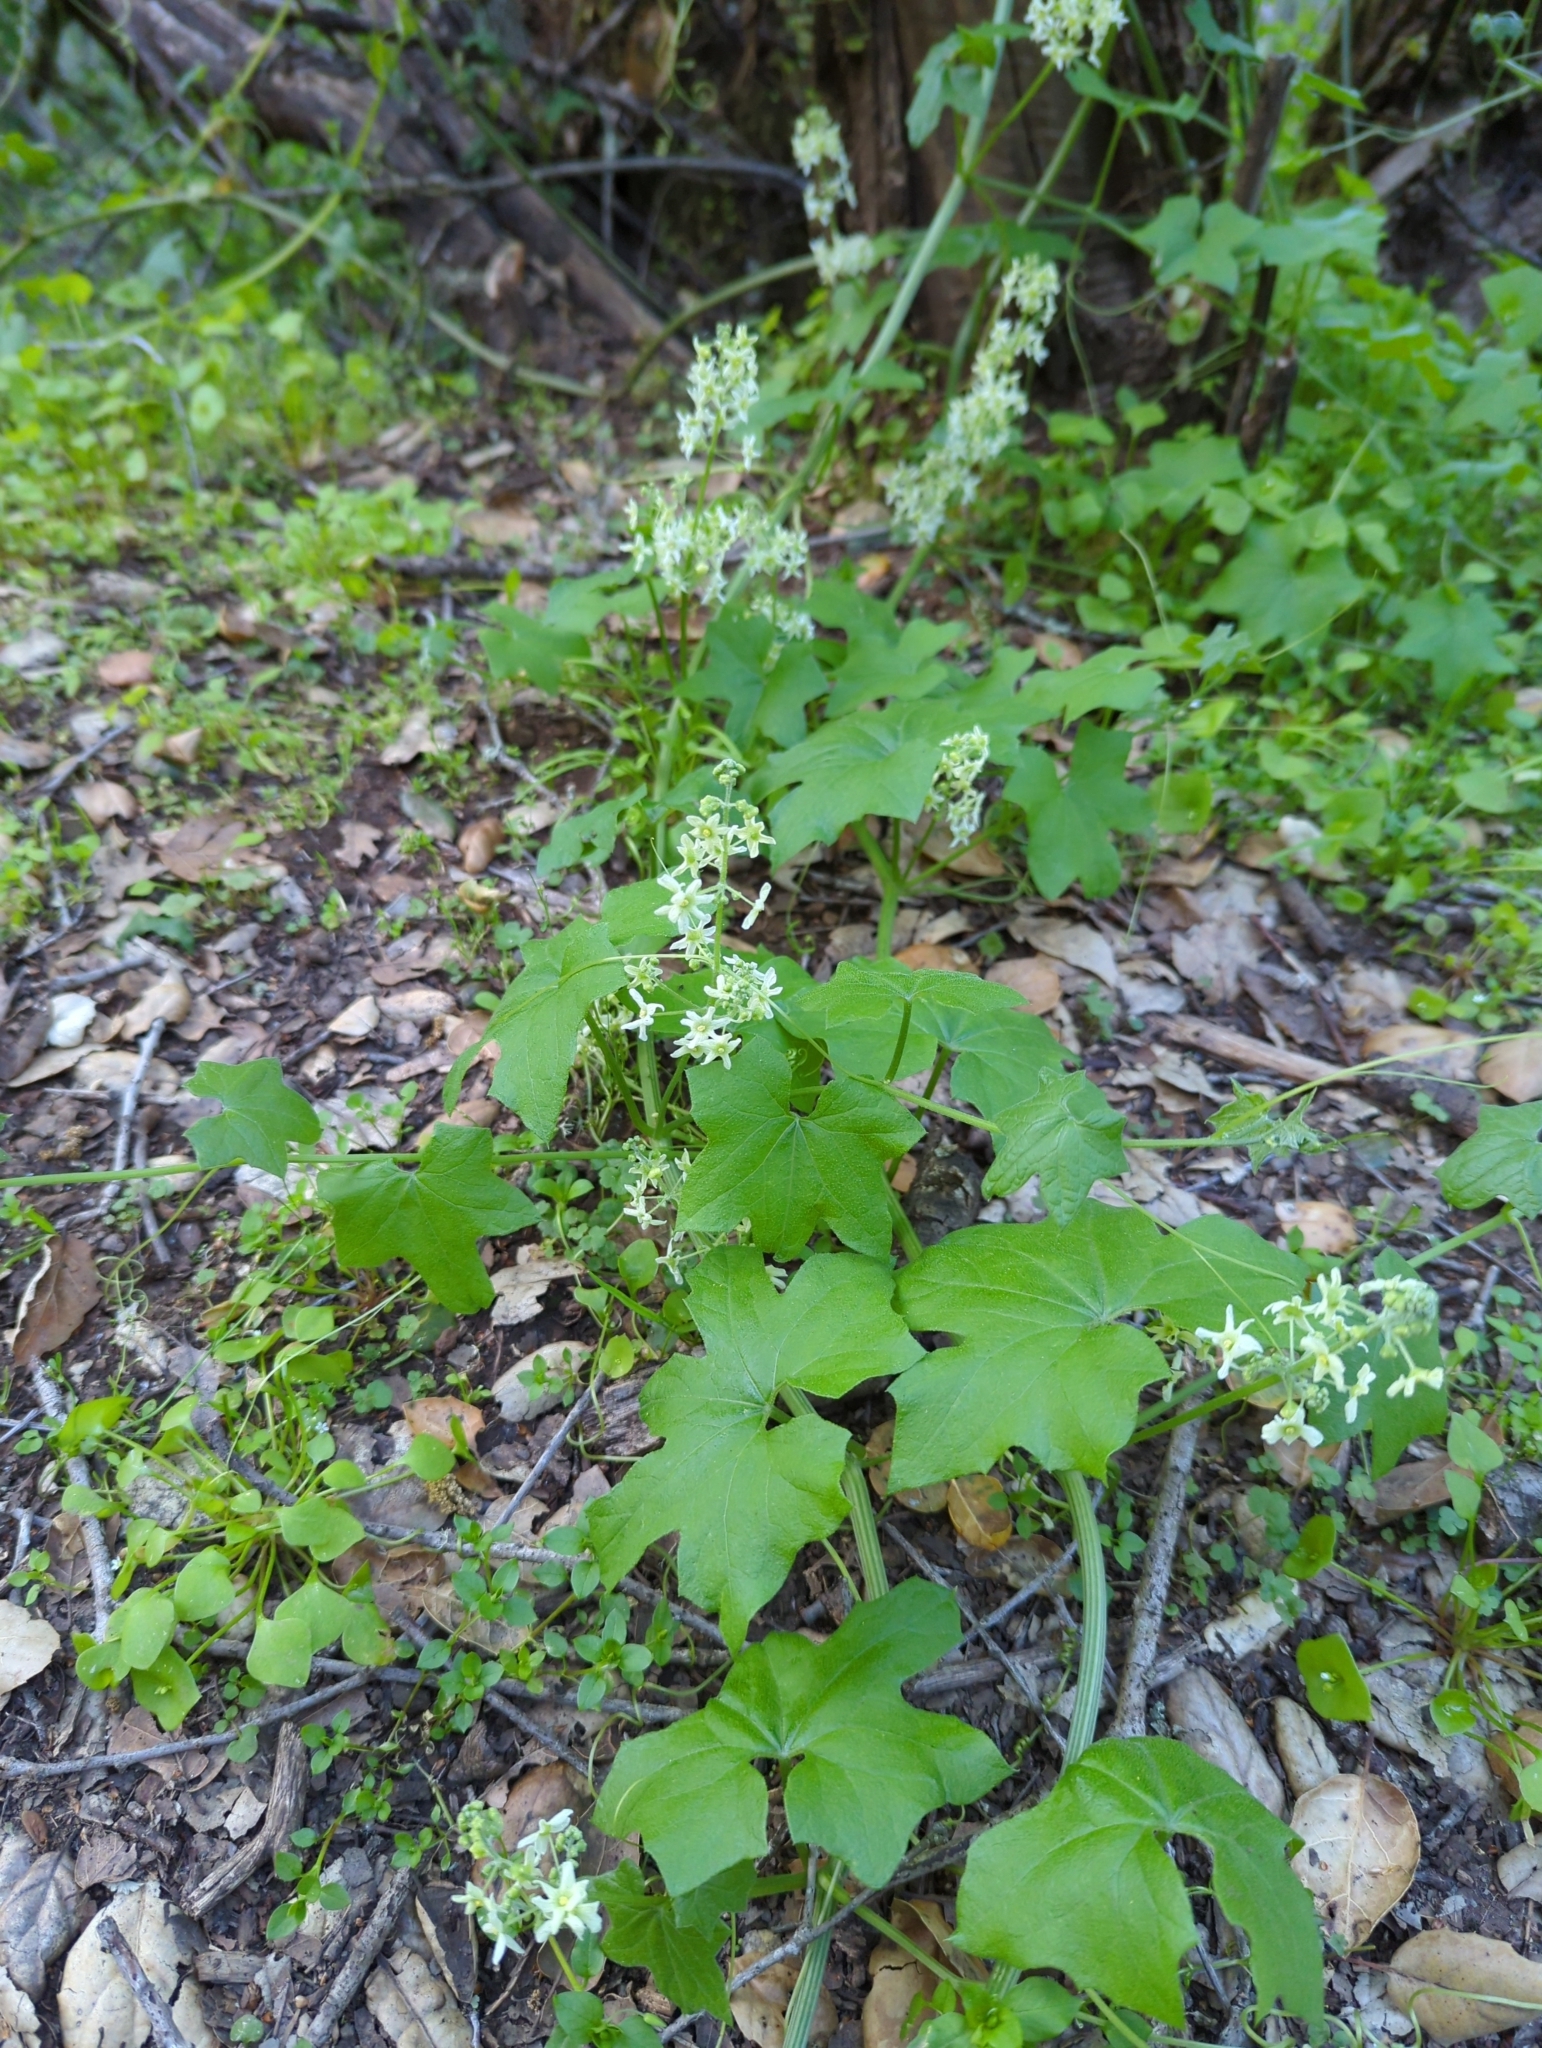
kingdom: Plantae
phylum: Tracheophyta
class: Magnoliopsida
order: Cucurbitales
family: Cucurbitaceae
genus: Marah
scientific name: Marah fabacea
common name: California manroot
